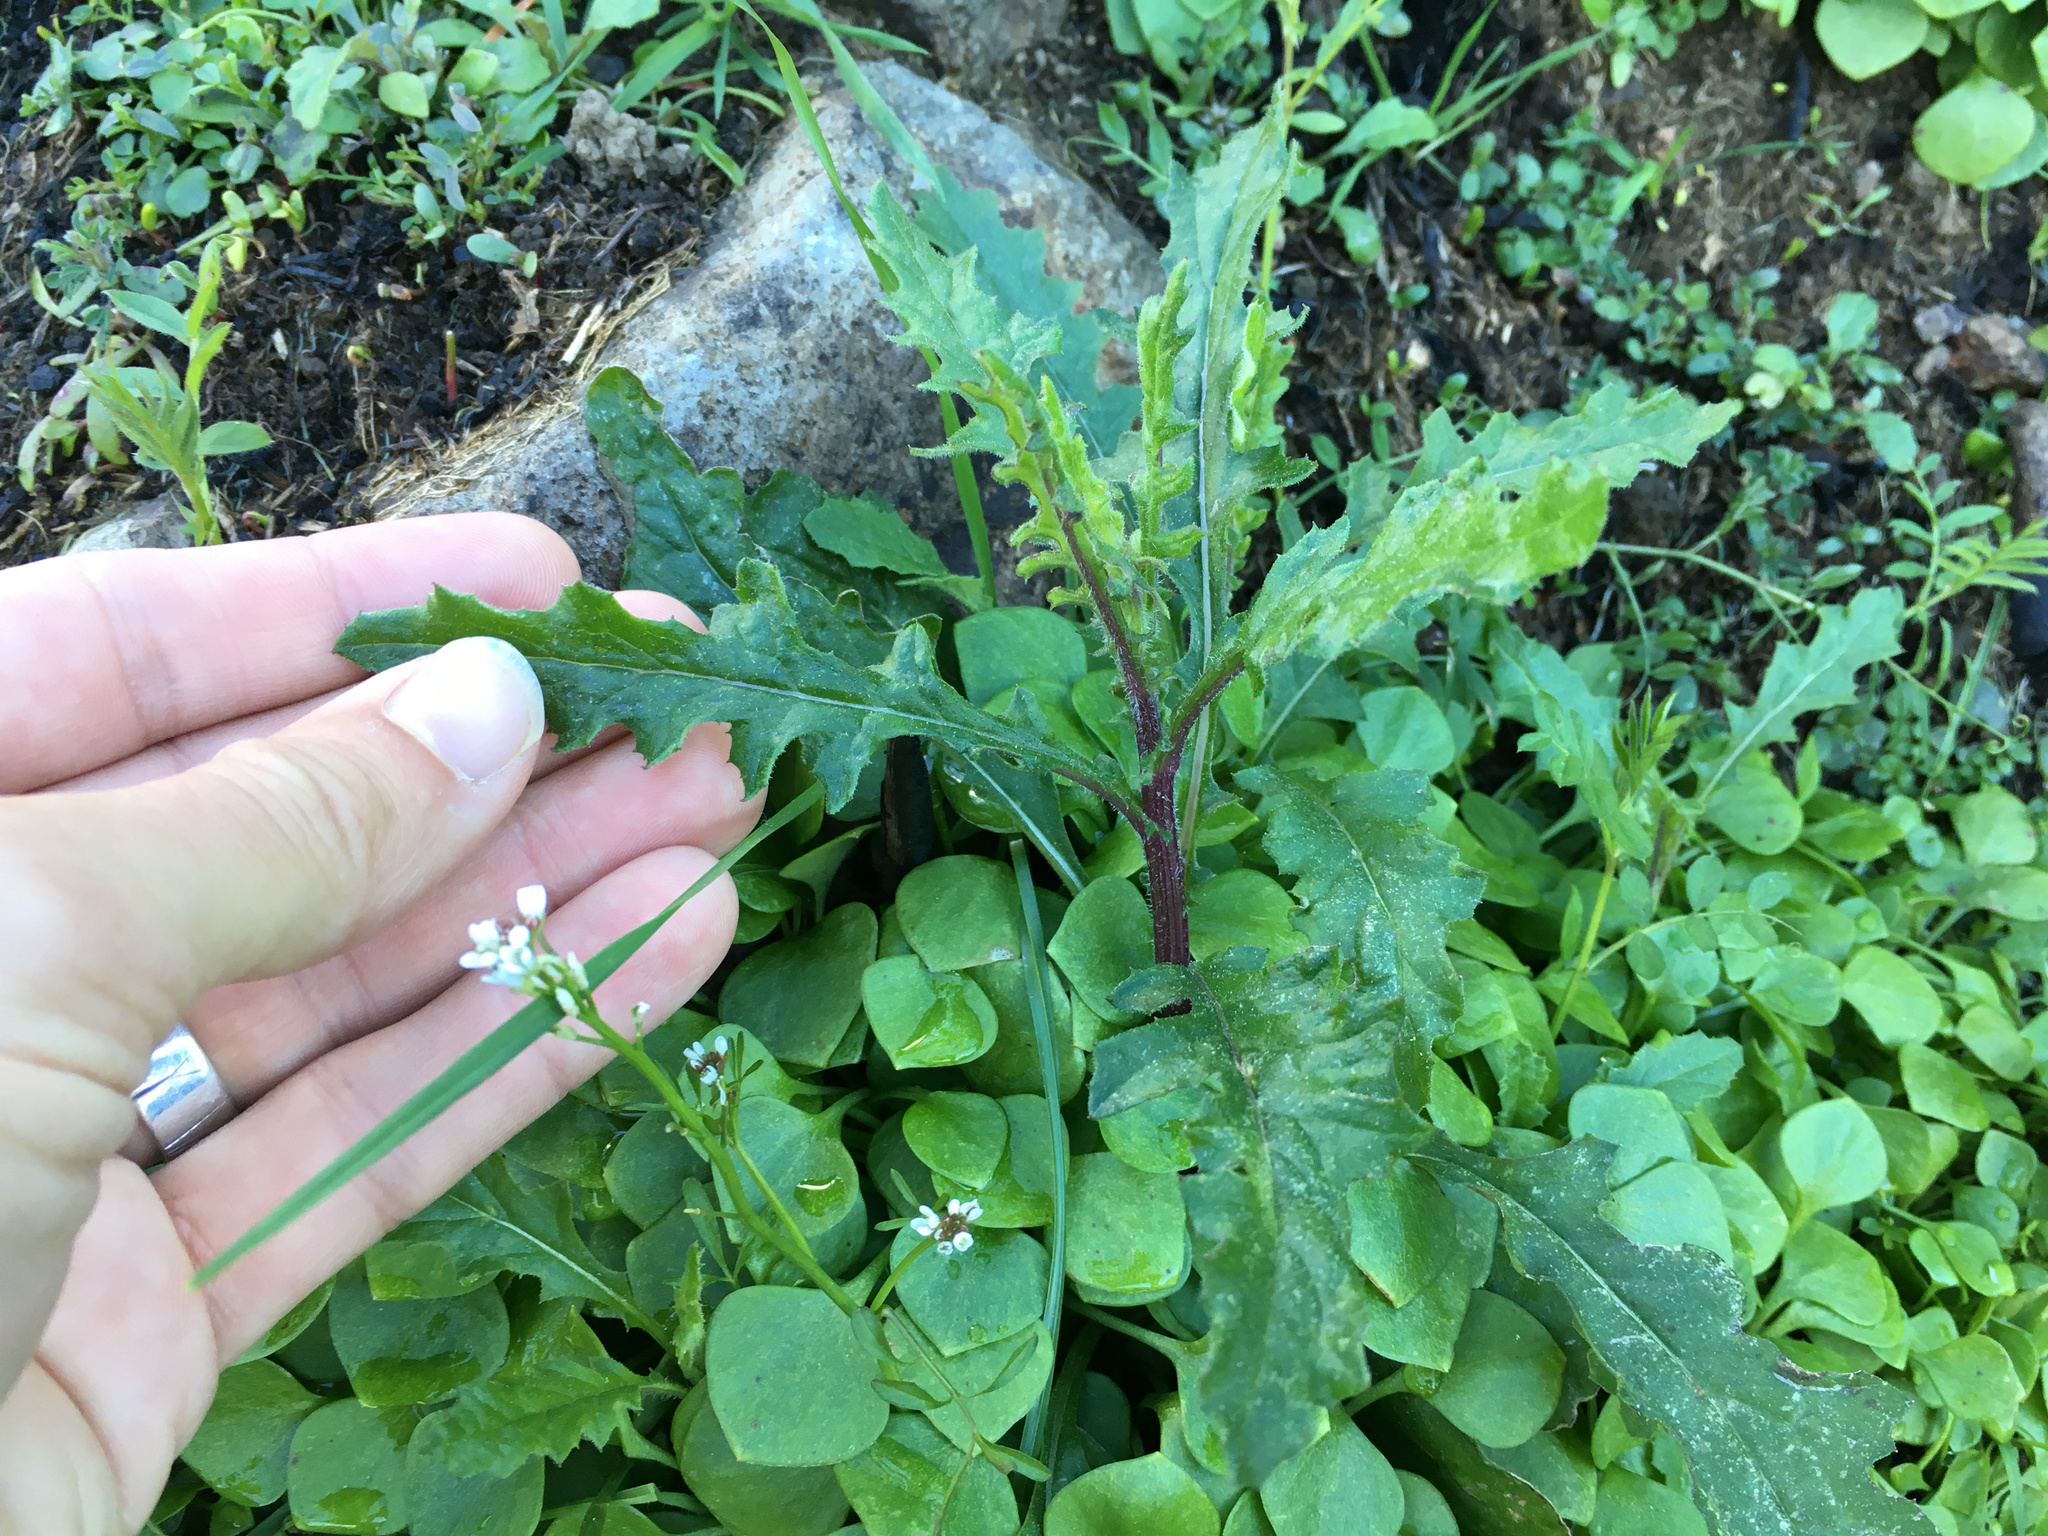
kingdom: Plantae
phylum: Tracheophyta
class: Magnoliopsida
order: Asterales
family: Asteraceae
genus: Senecio
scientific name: Senecio hispidulus
